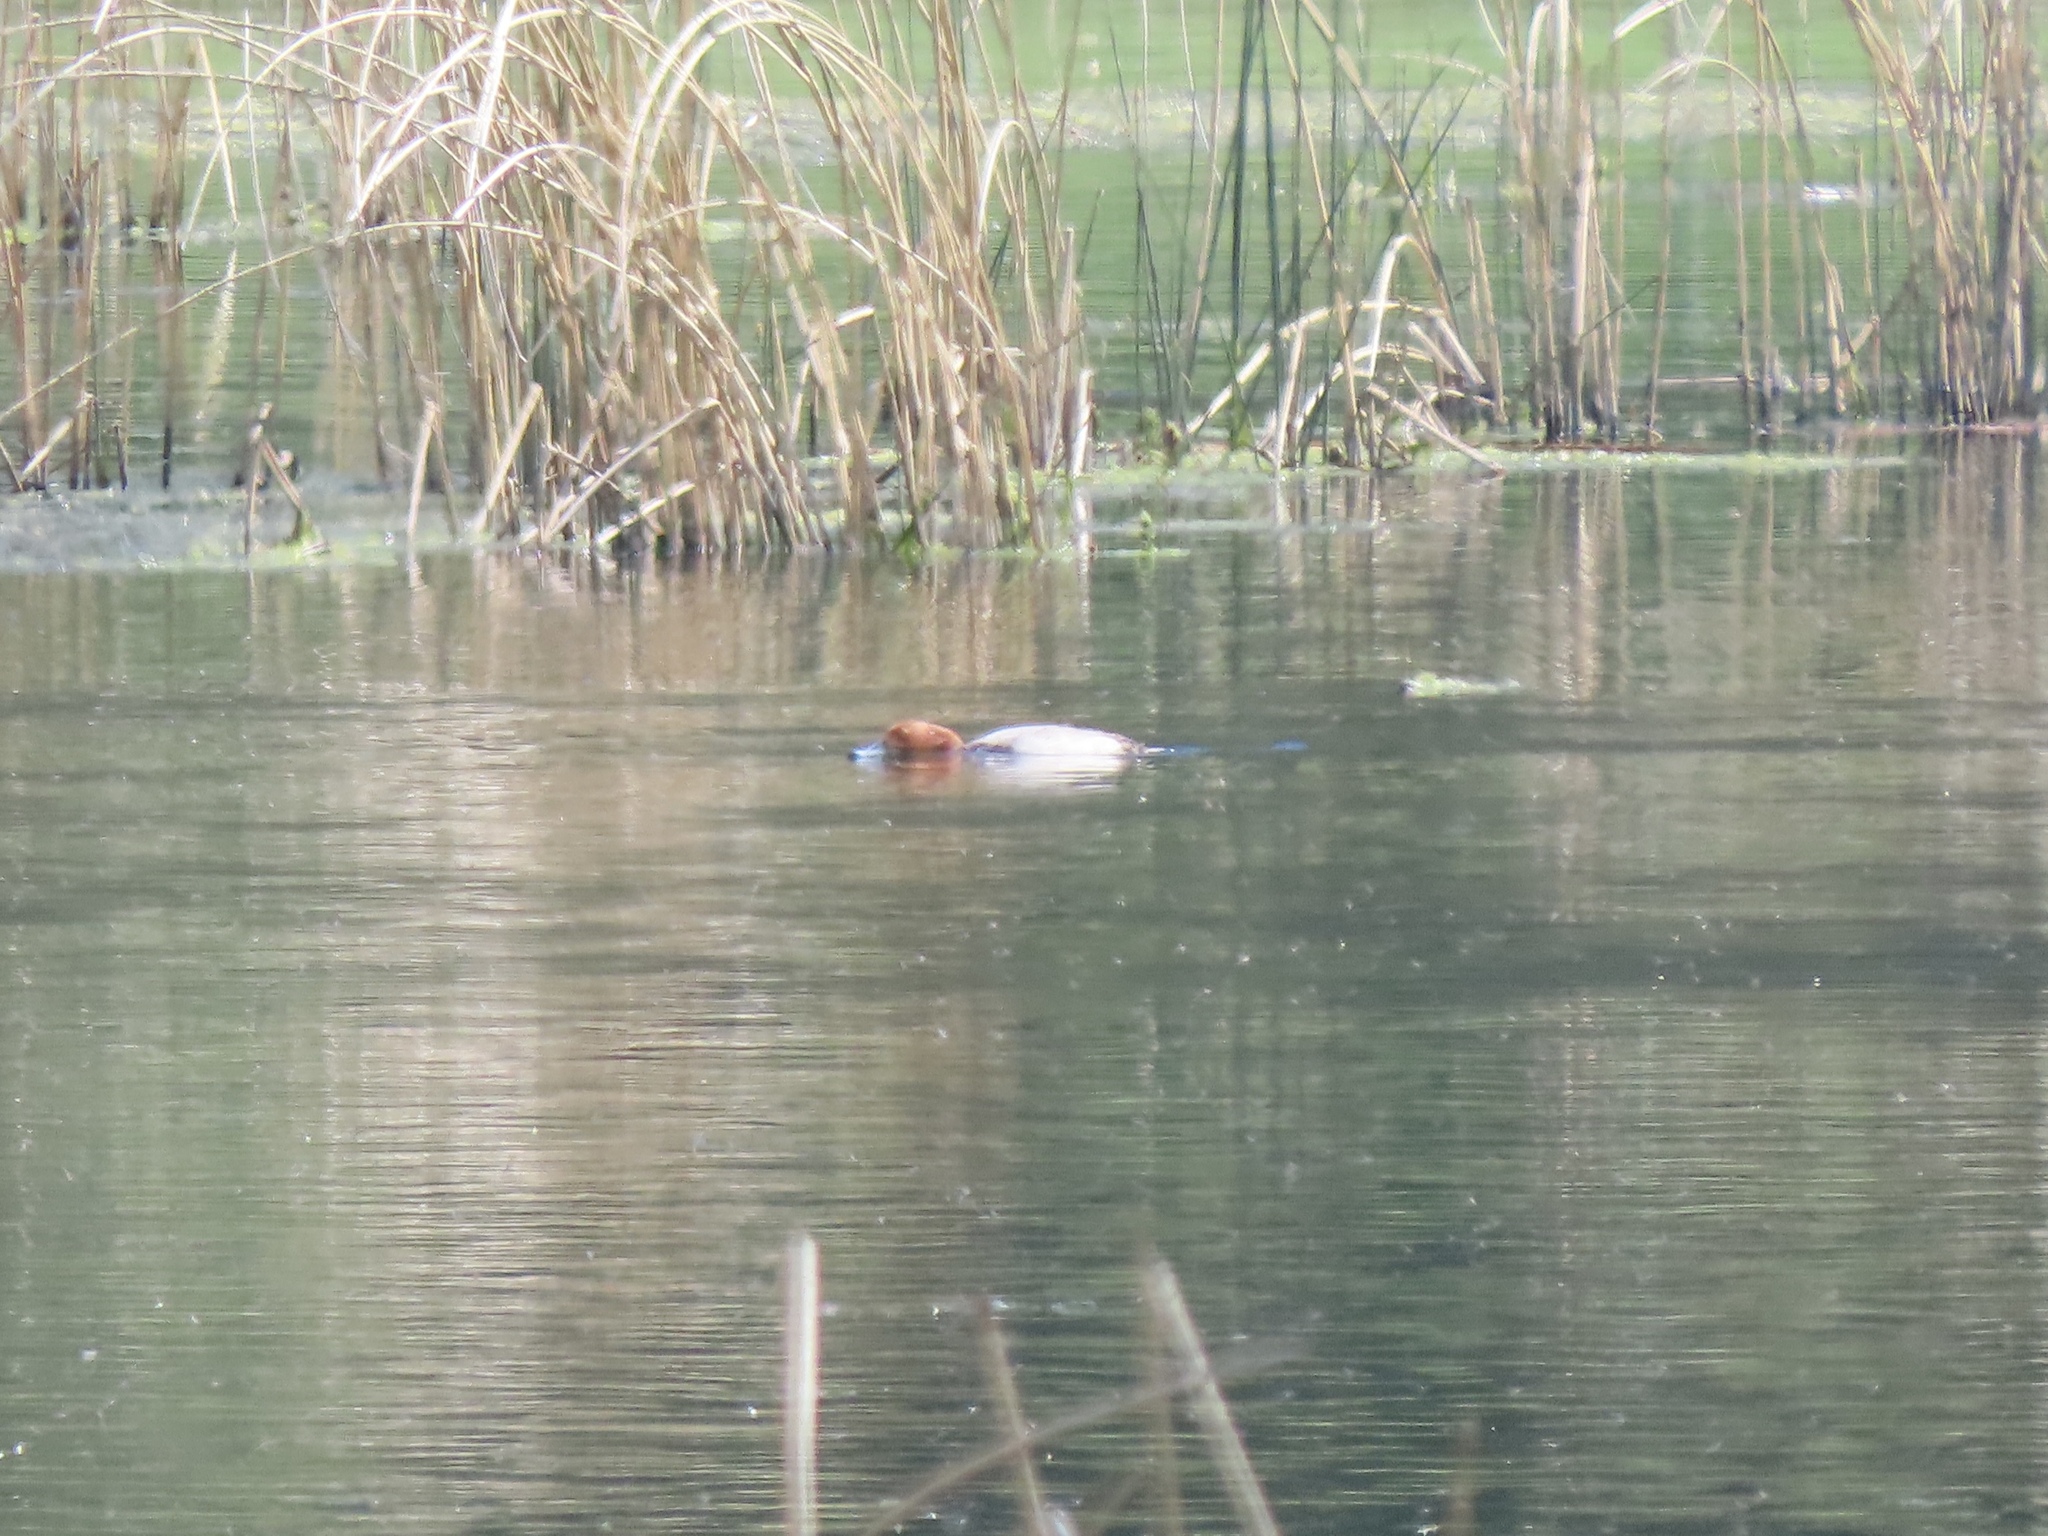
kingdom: Animalia
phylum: Chordata
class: Aves
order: Anseriformes
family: Anatidae
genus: Aythya
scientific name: Aythya americana
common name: Redhead
